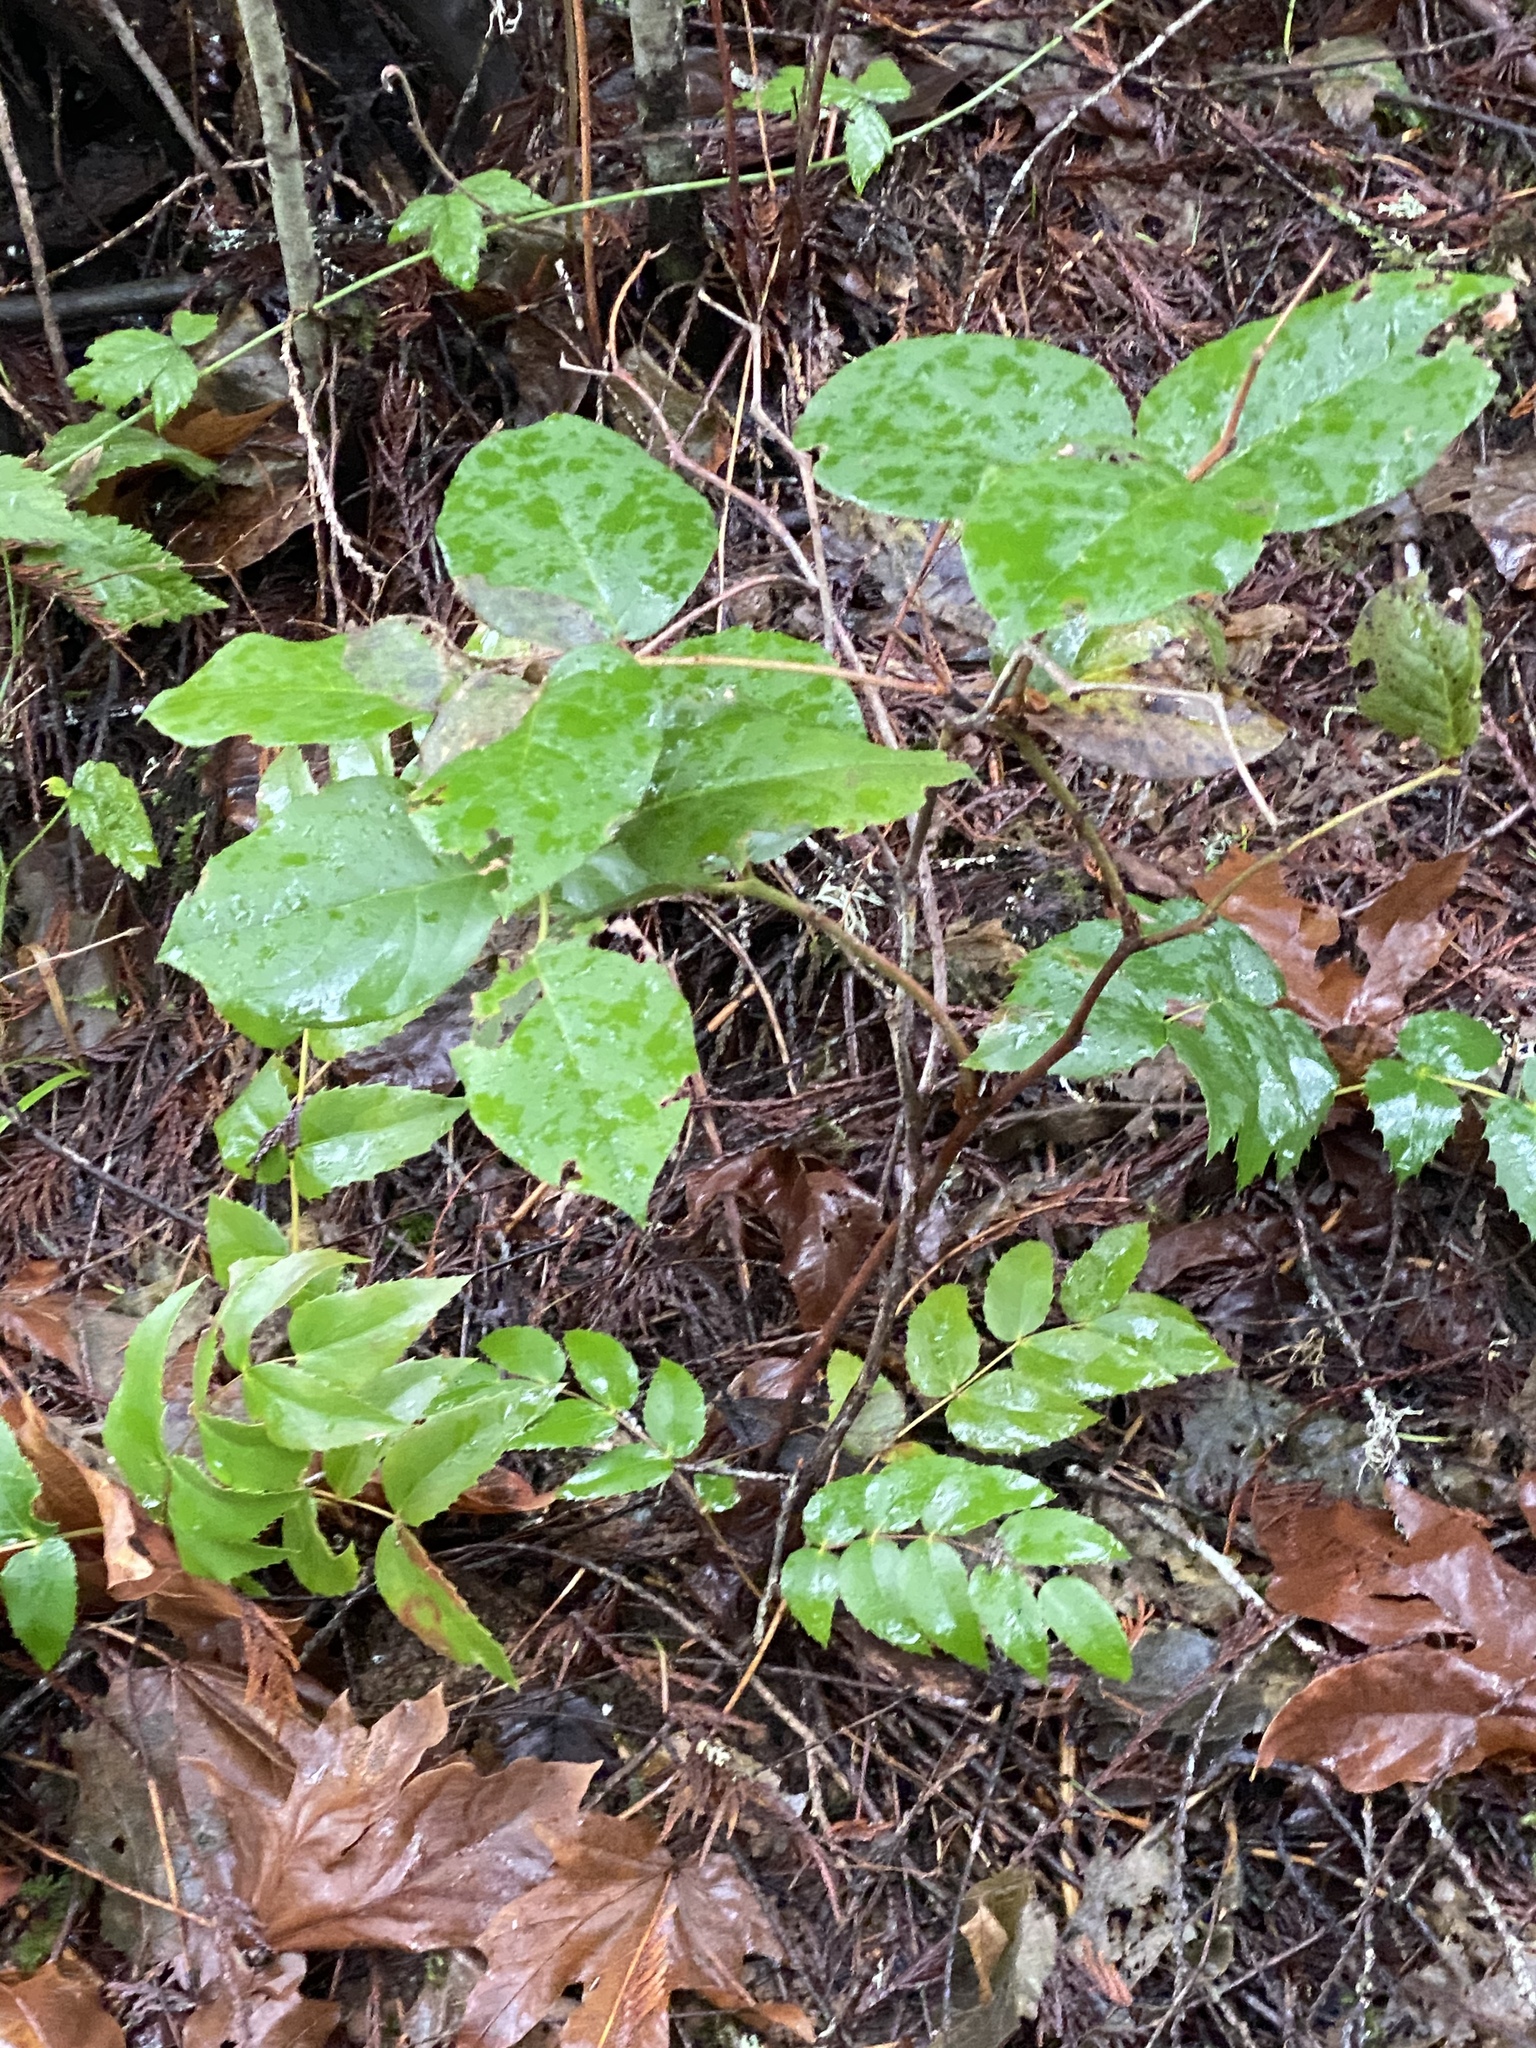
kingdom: Plantae
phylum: Tracheophyta
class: Magnoliopsida
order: Ericales
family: Ericaceae
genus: Gaultheria
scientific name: Gaultheria shallon
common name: Shallon
